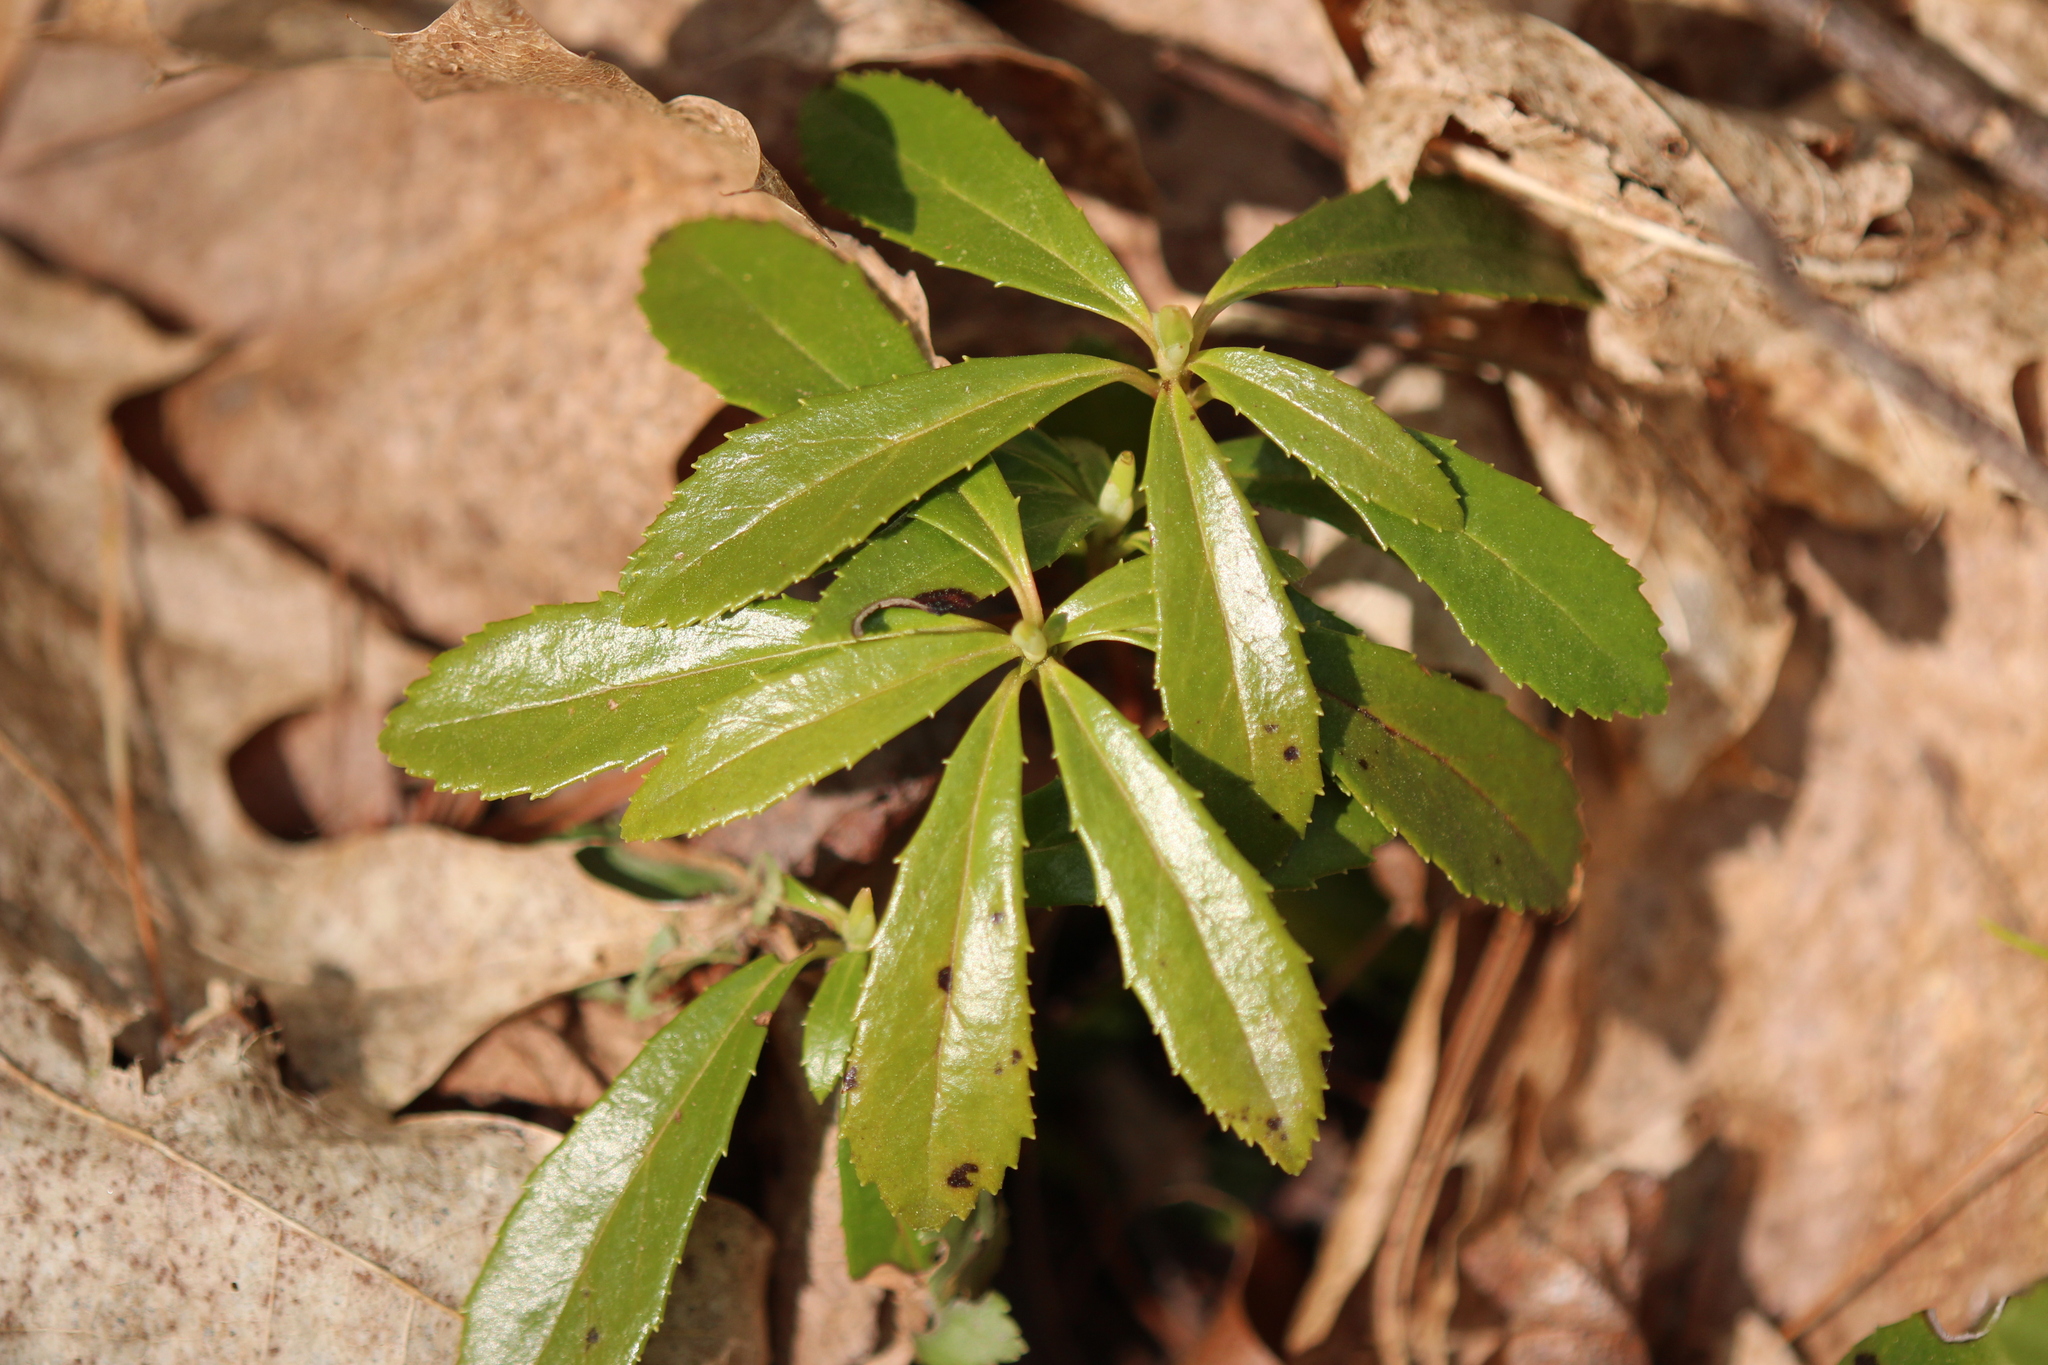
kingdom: Plantae
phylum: Tracheophyta
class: Magnoliopsida
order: Ericales
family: Ericaceae
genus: Chimaphila
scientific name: Chimaphila umbellata
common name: Pipsissewa
